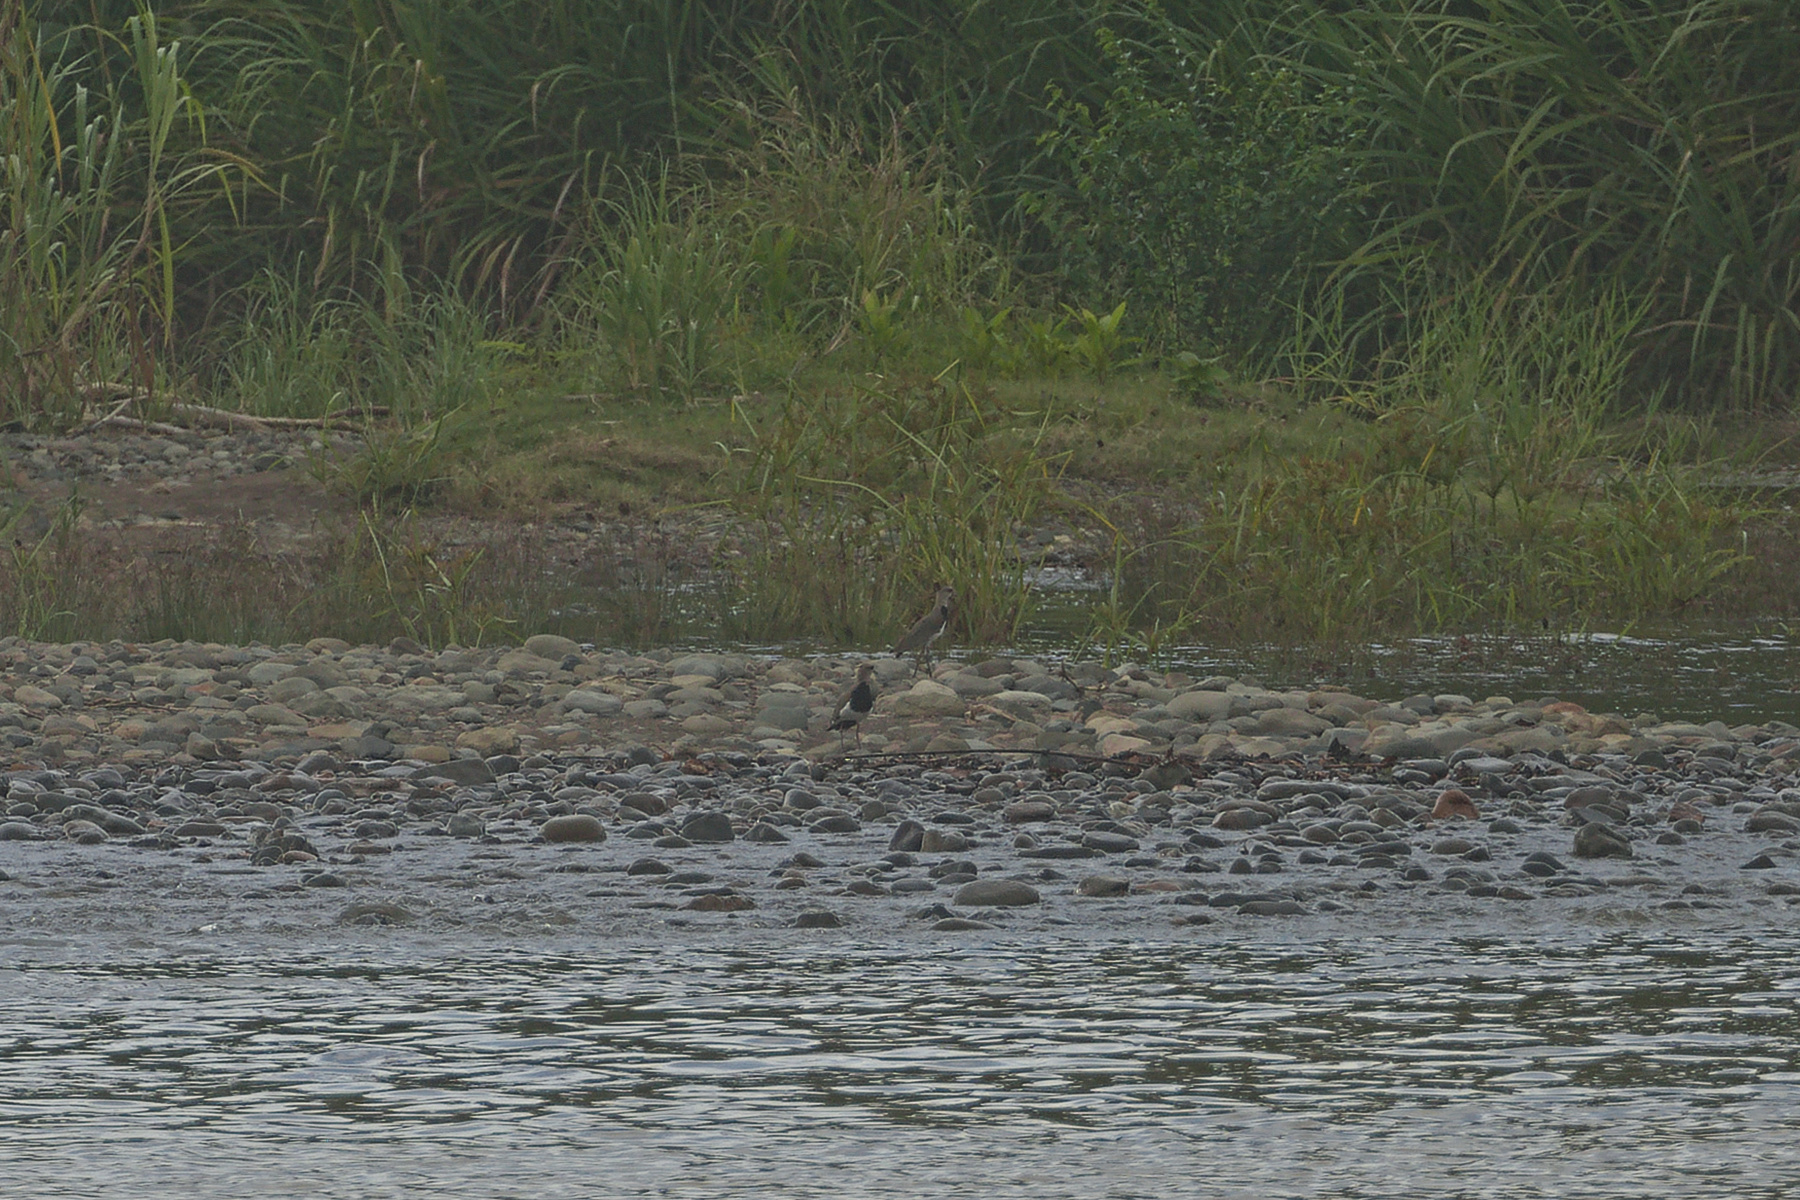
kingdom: Animalia
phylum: Chordata
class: Aves
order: Charadriiformes
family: Charadriidae
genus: Vanellus
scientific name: Vanellus chilensis
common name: Southern lapwing
